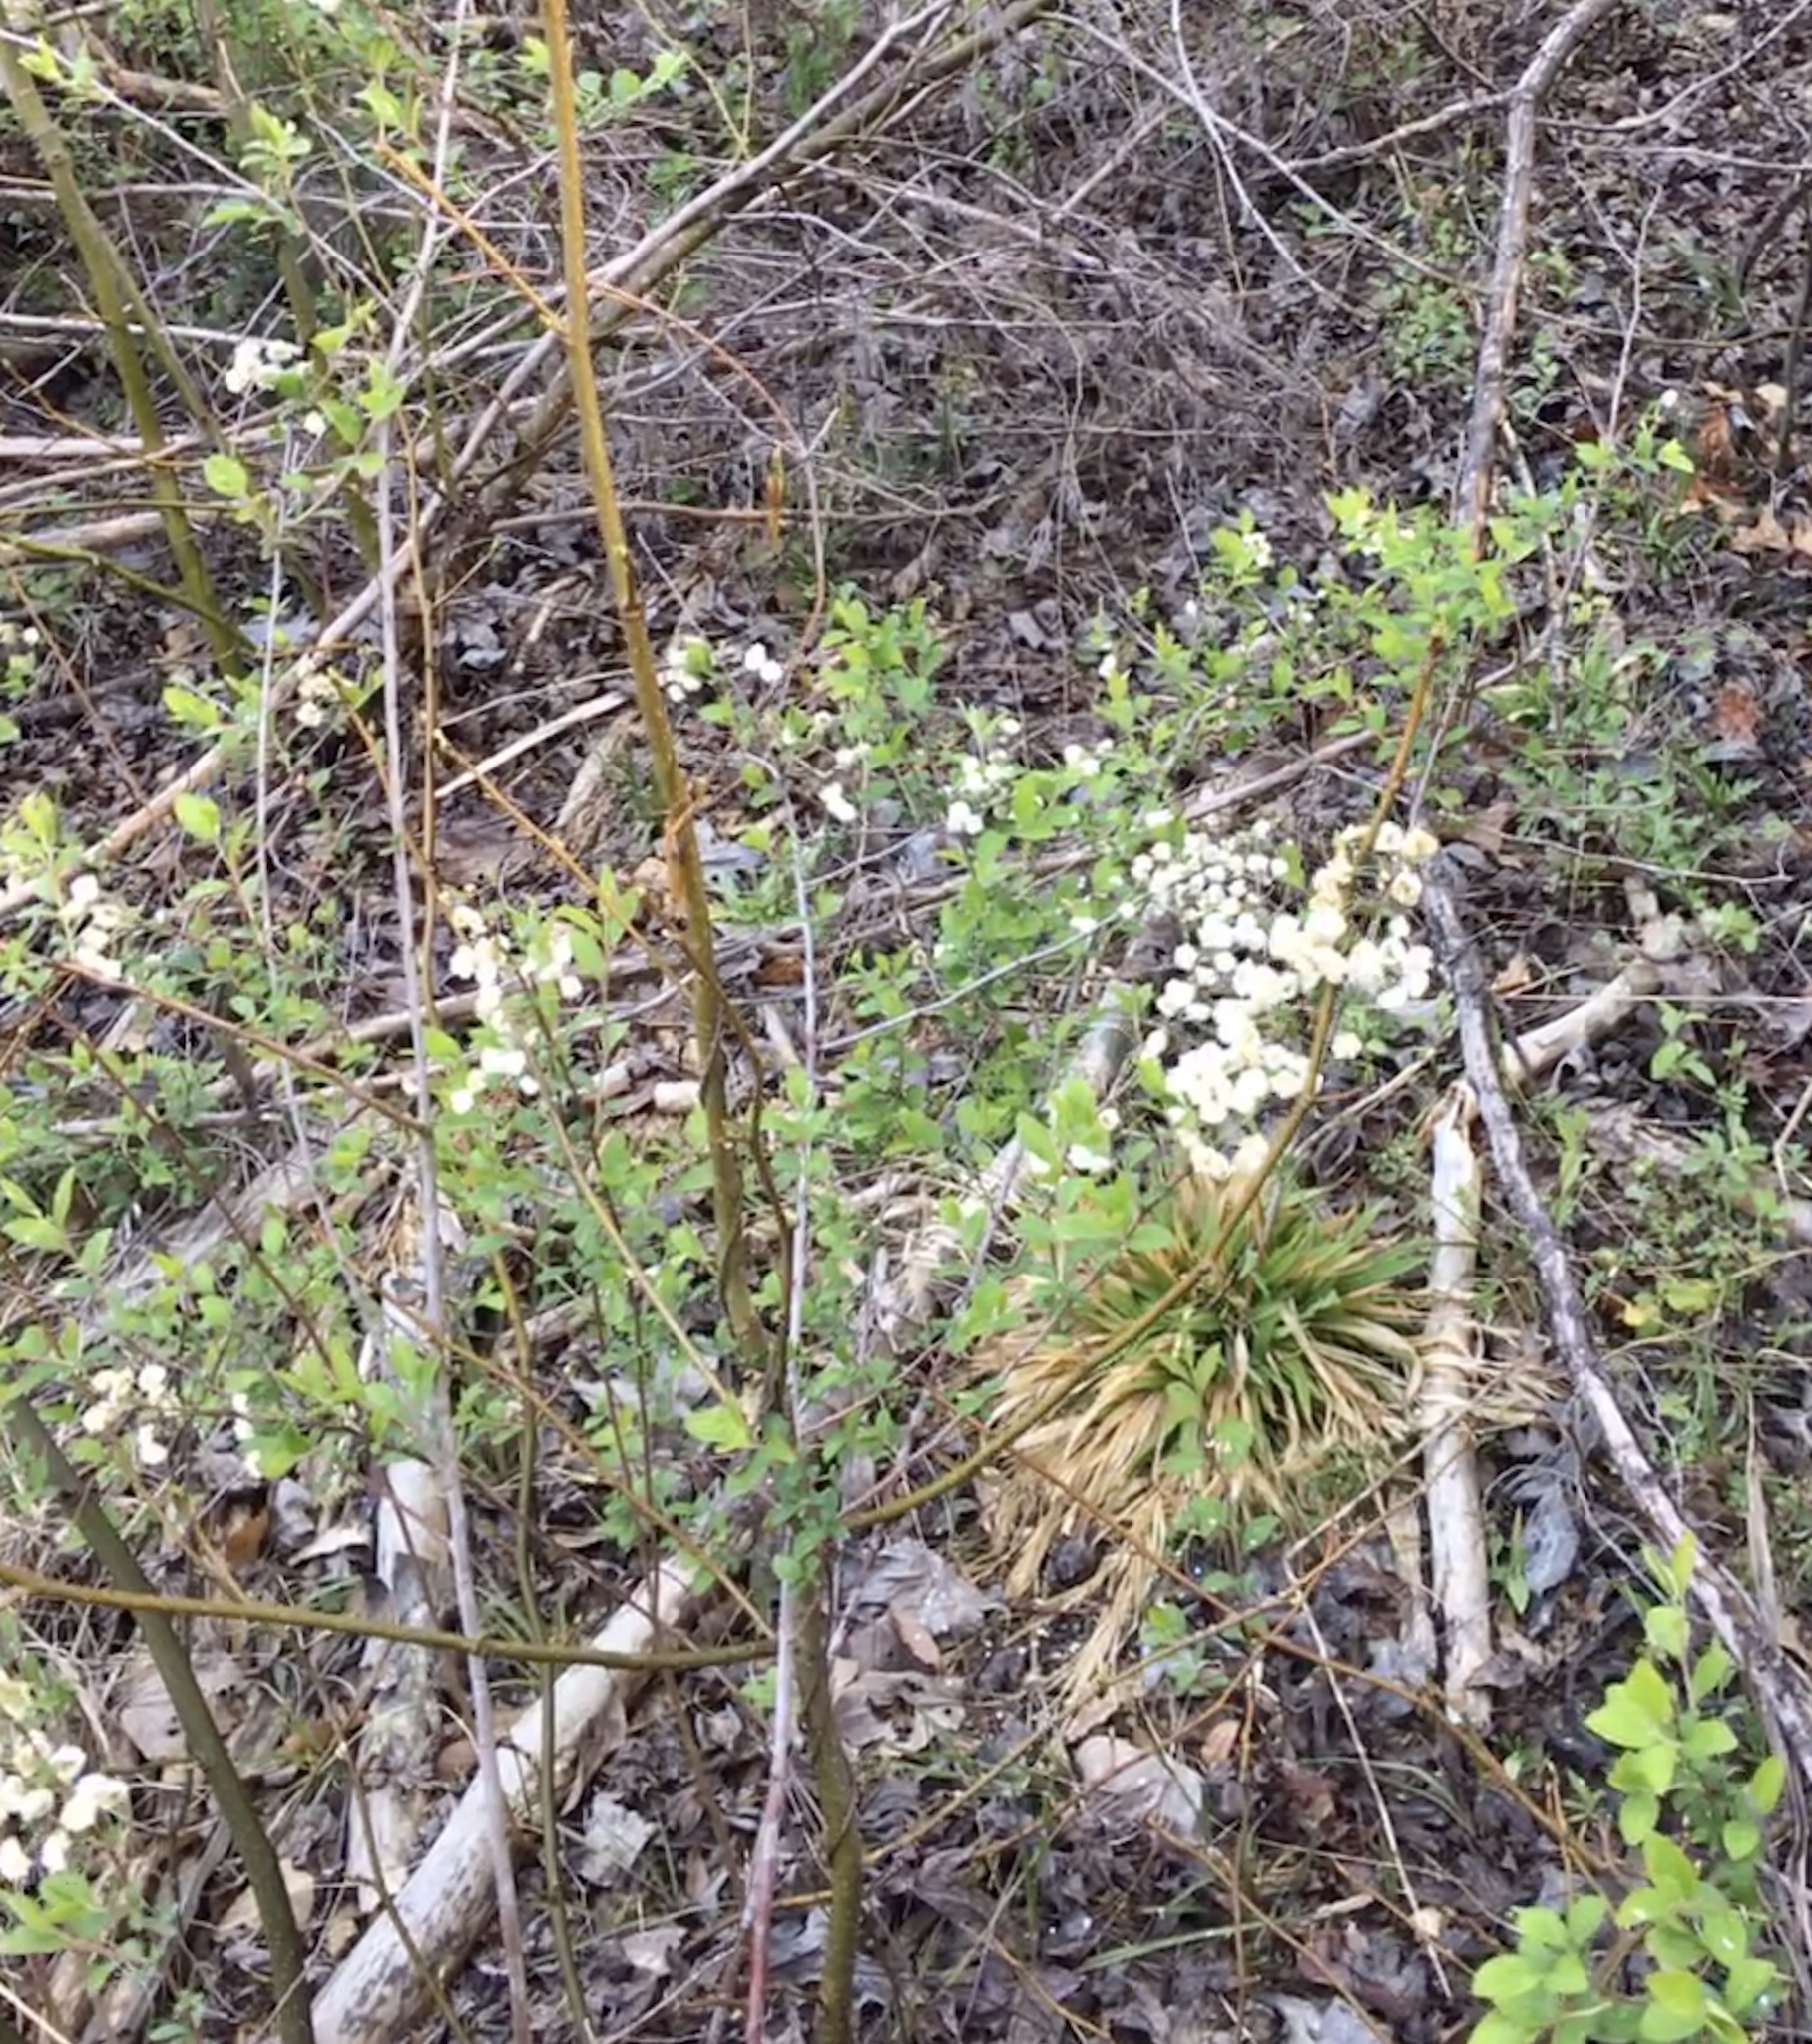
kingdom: Plantae
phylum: Tracheophyta
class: Magnoliopsida
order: Rosales
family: Rosaceae
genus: Spiraea
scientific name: Spiraea prunifolia
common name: Bridal-wreath spiraea
